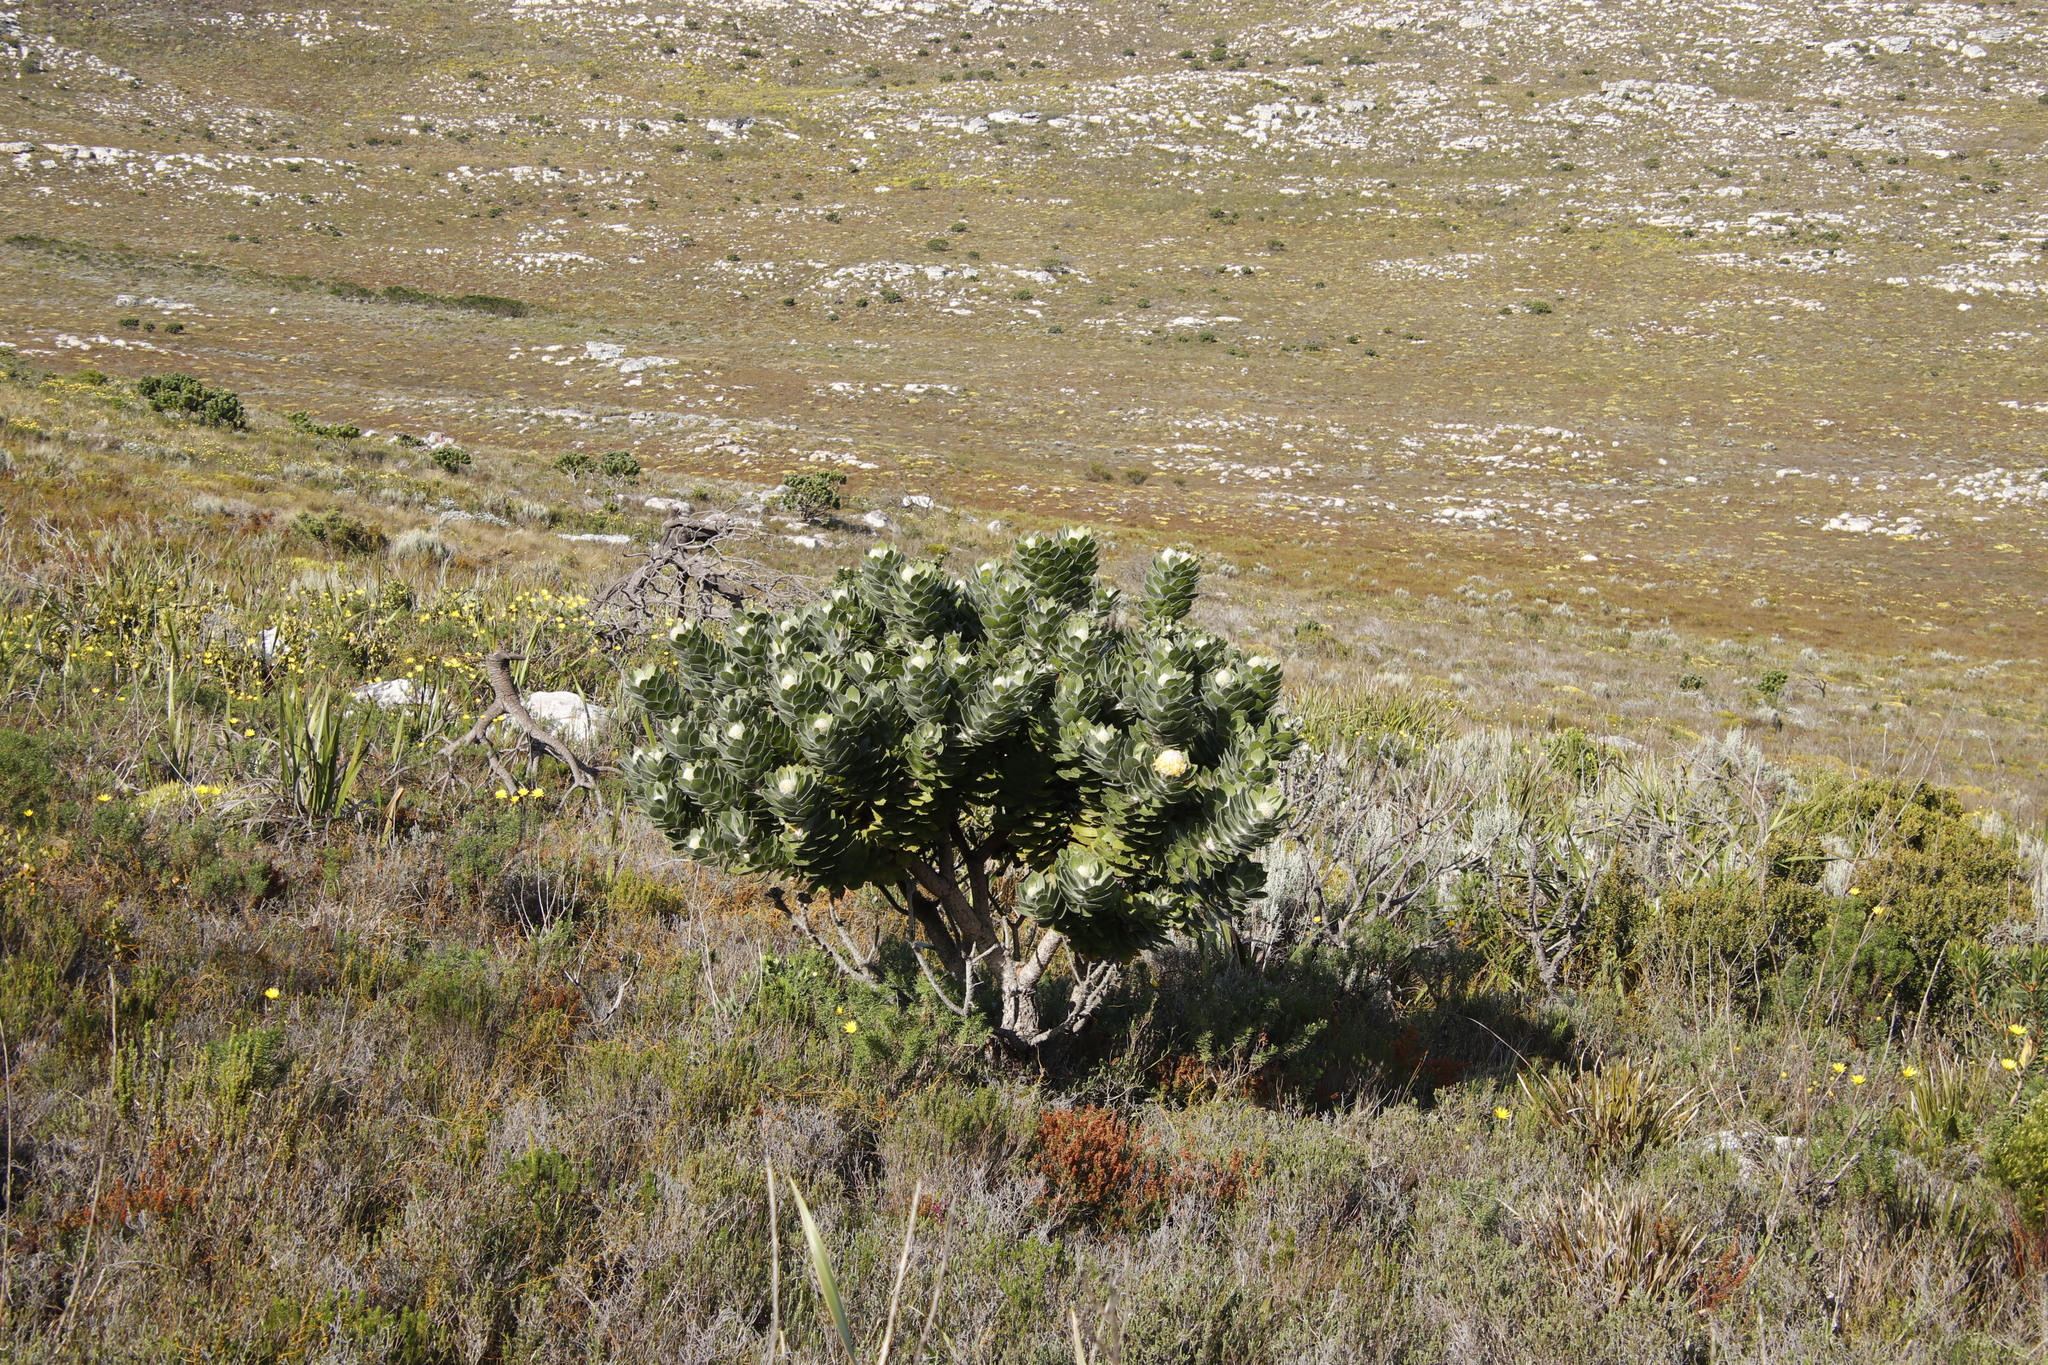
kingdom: Plantae
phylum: Tracheophyta
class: Magnoliopsida
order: Proteales
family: Proteaceae
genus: Leucospermum
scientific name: Leucospermum conocarpodendron
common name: Tree pincushion
